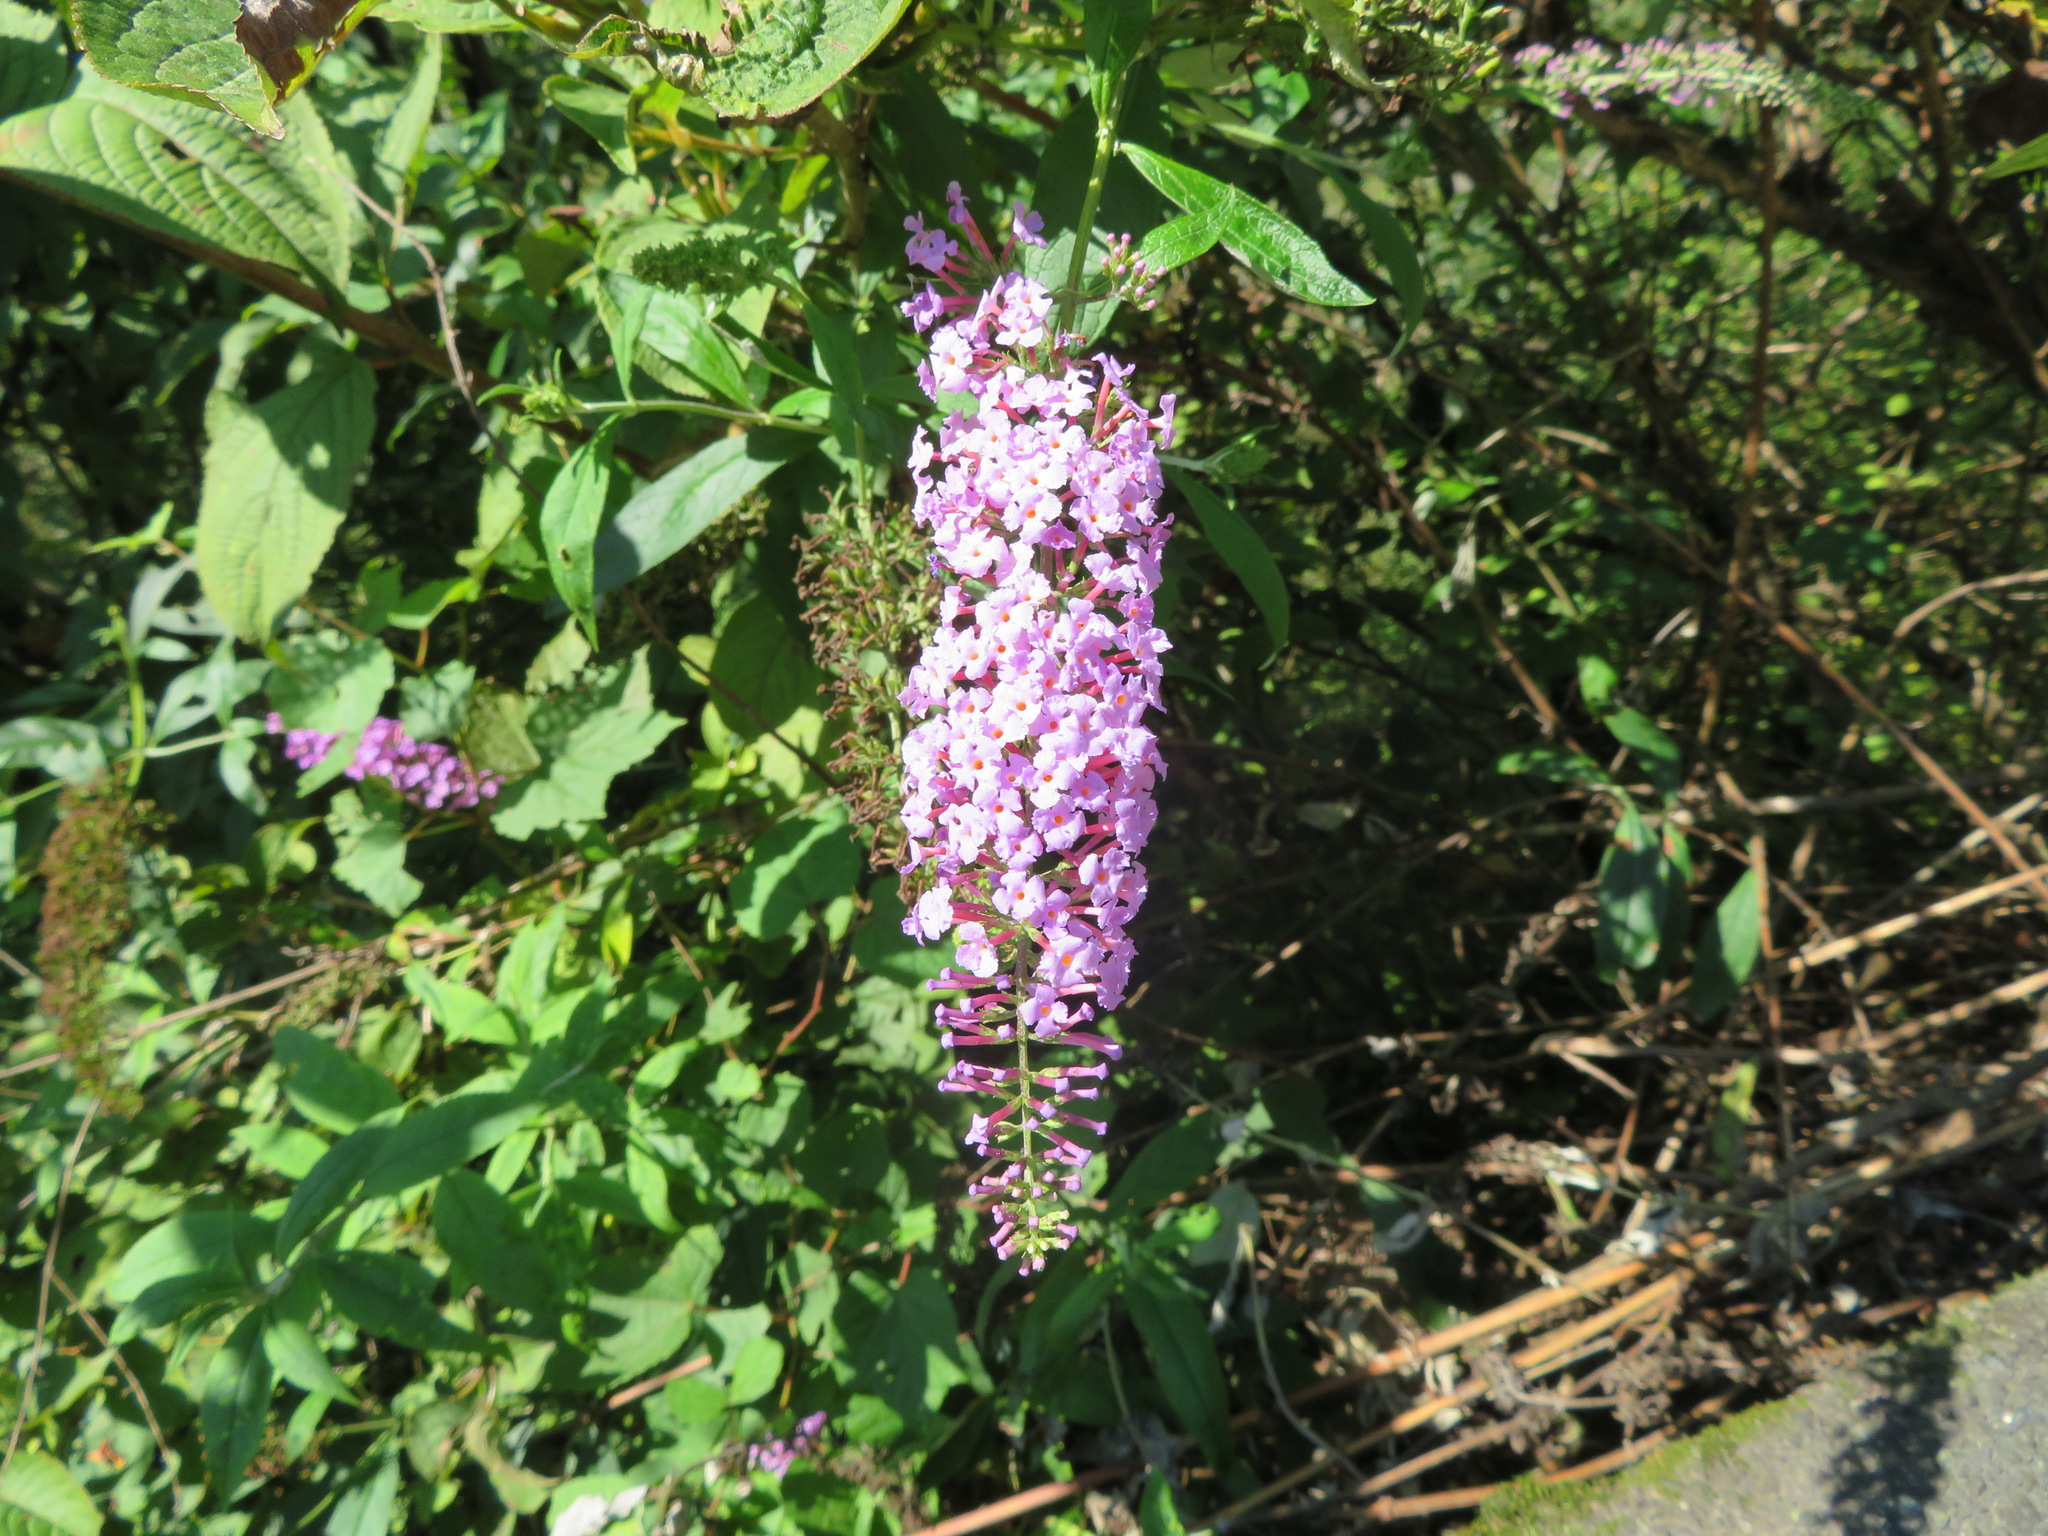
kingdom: Plantae
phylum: Tracheophyta
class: Magnoliopsida
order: Lamiales
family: Scrophulariaceae
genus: Buddleja
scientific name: Buddleja davidii
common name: Butterfly-bush
